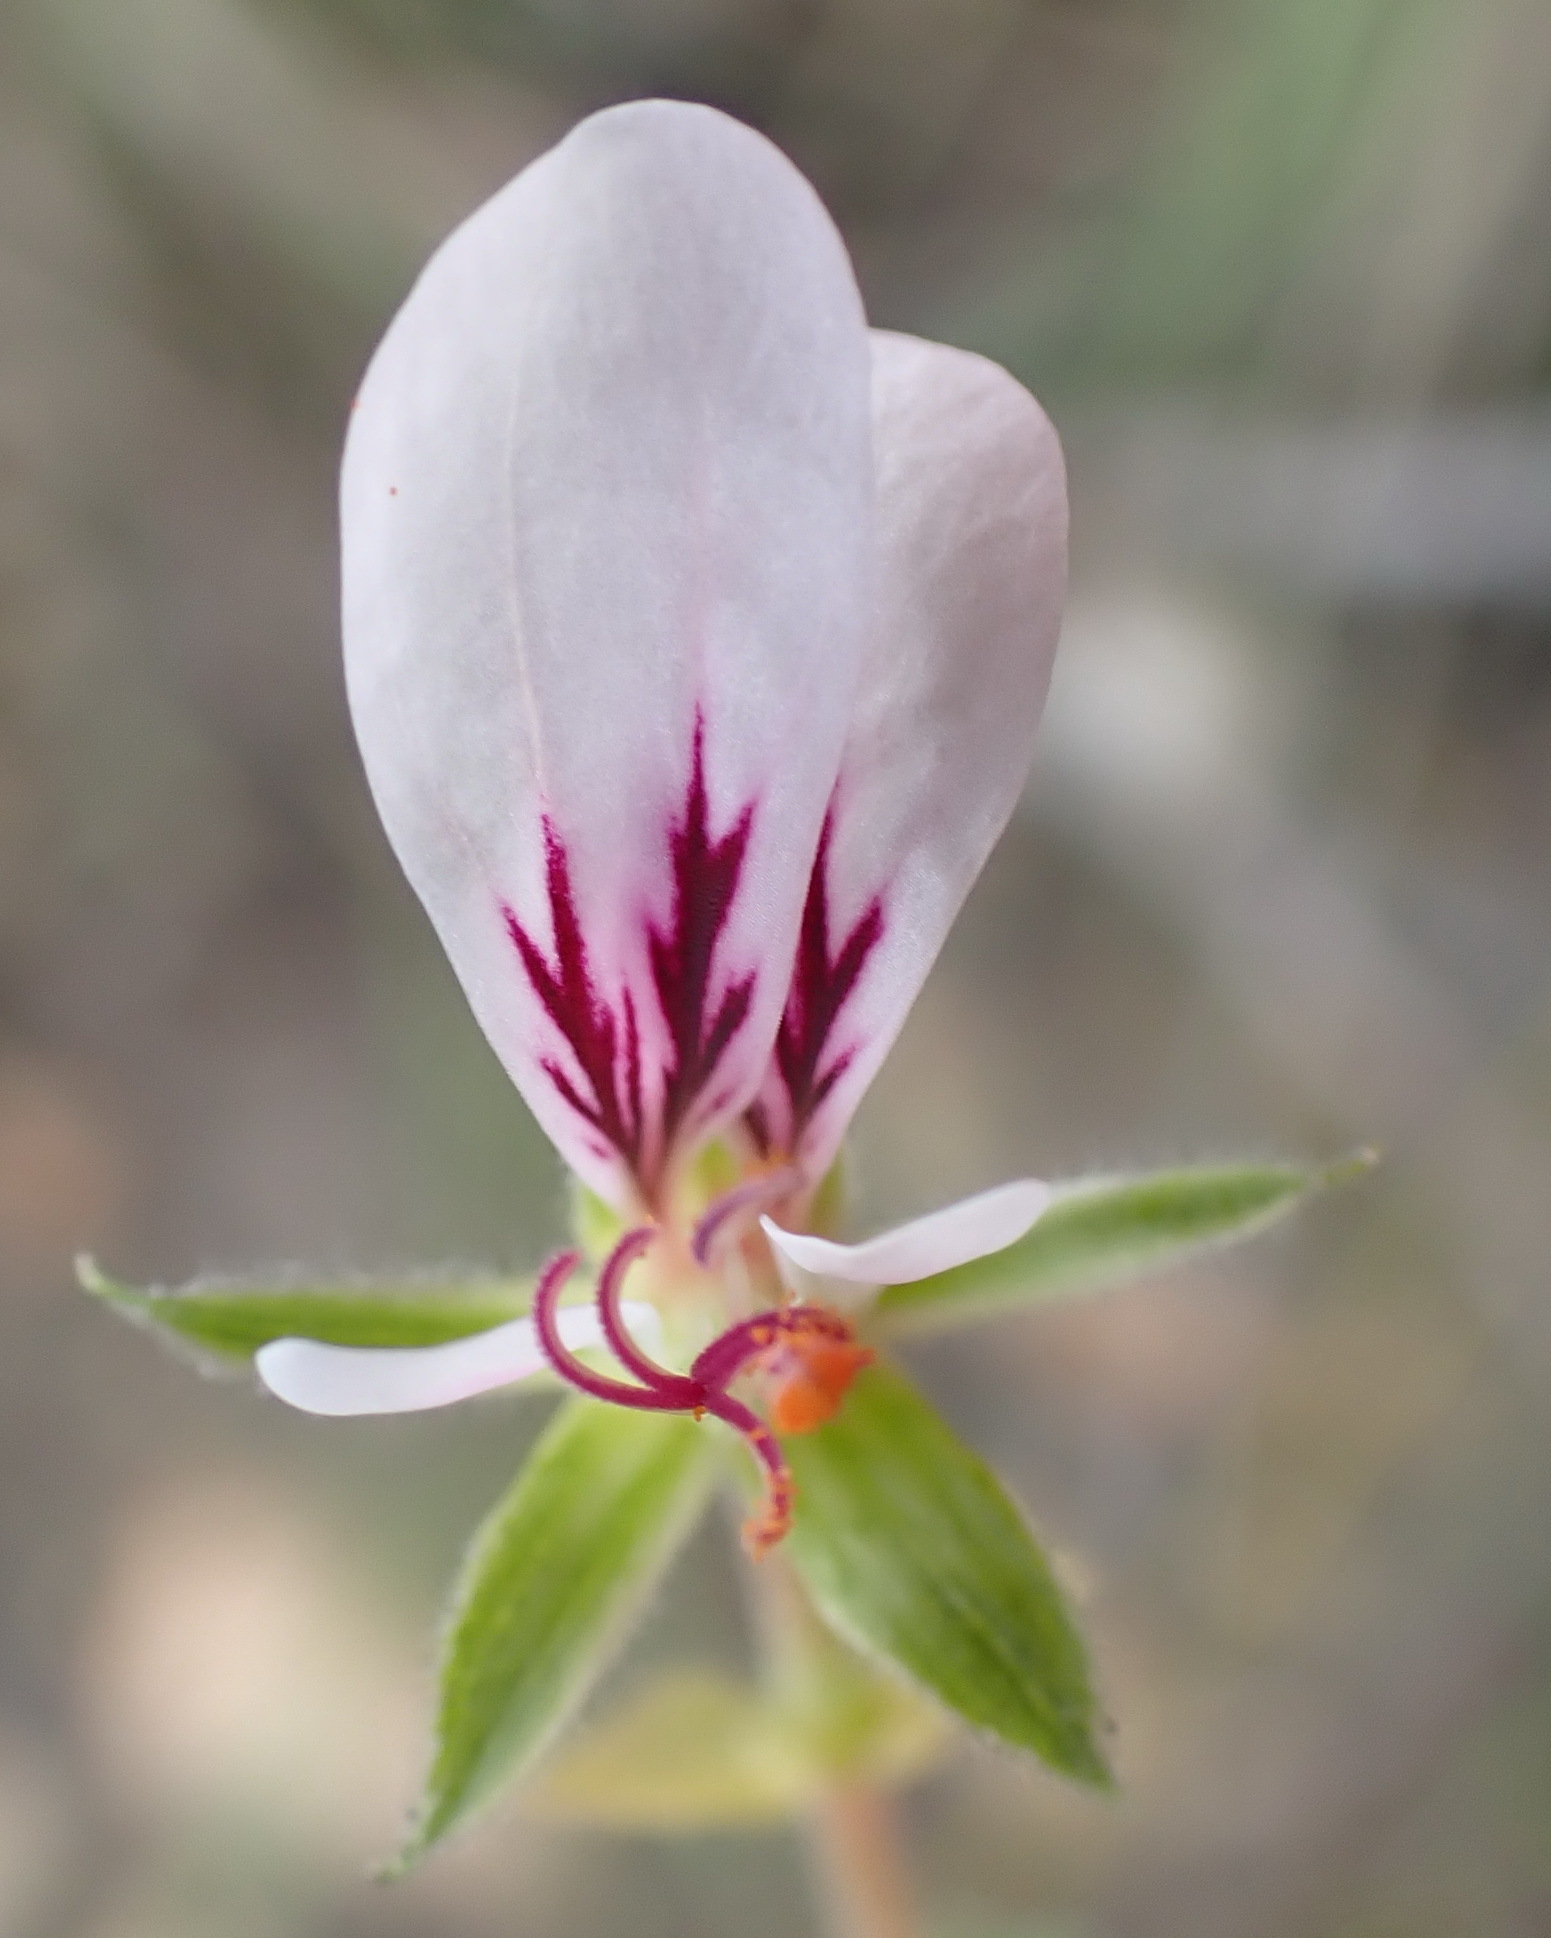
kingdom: Plantae
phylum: Tracheophyta
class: Magnoliopsida
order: Geraniales
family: Geraniaceae
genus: Pelargonium
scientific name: Pelargonium candicans
